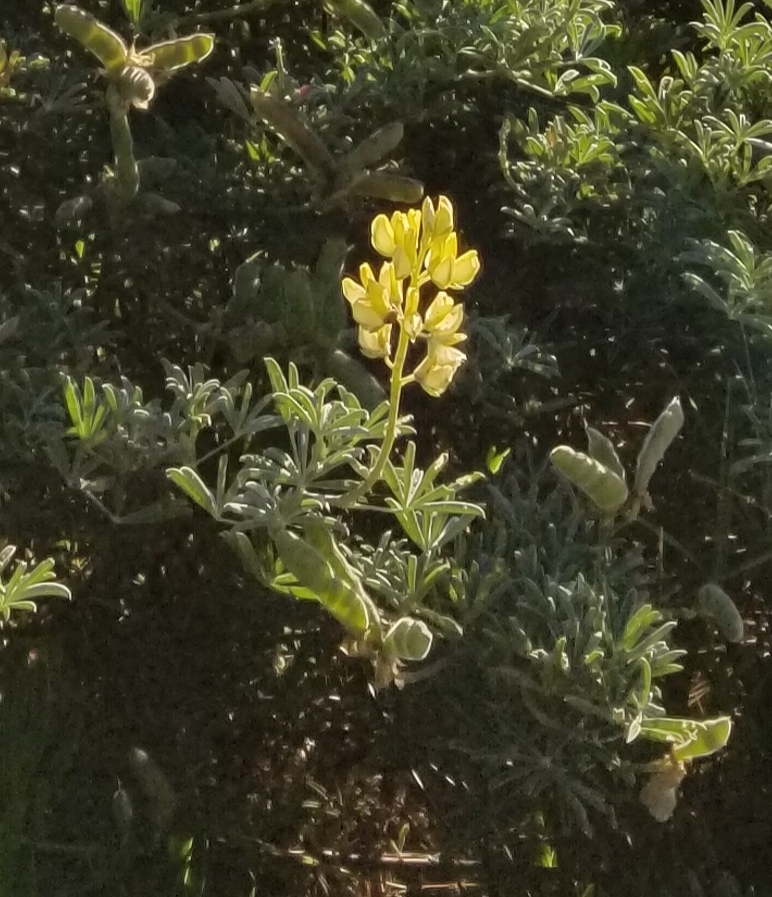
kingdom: Plantae
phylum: Tracheophyta
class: Magnoliopsida
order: Fabales
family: Fabaceae
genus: Lupinus
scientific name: Lupinus arboreus
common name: Yellow bush lupine
